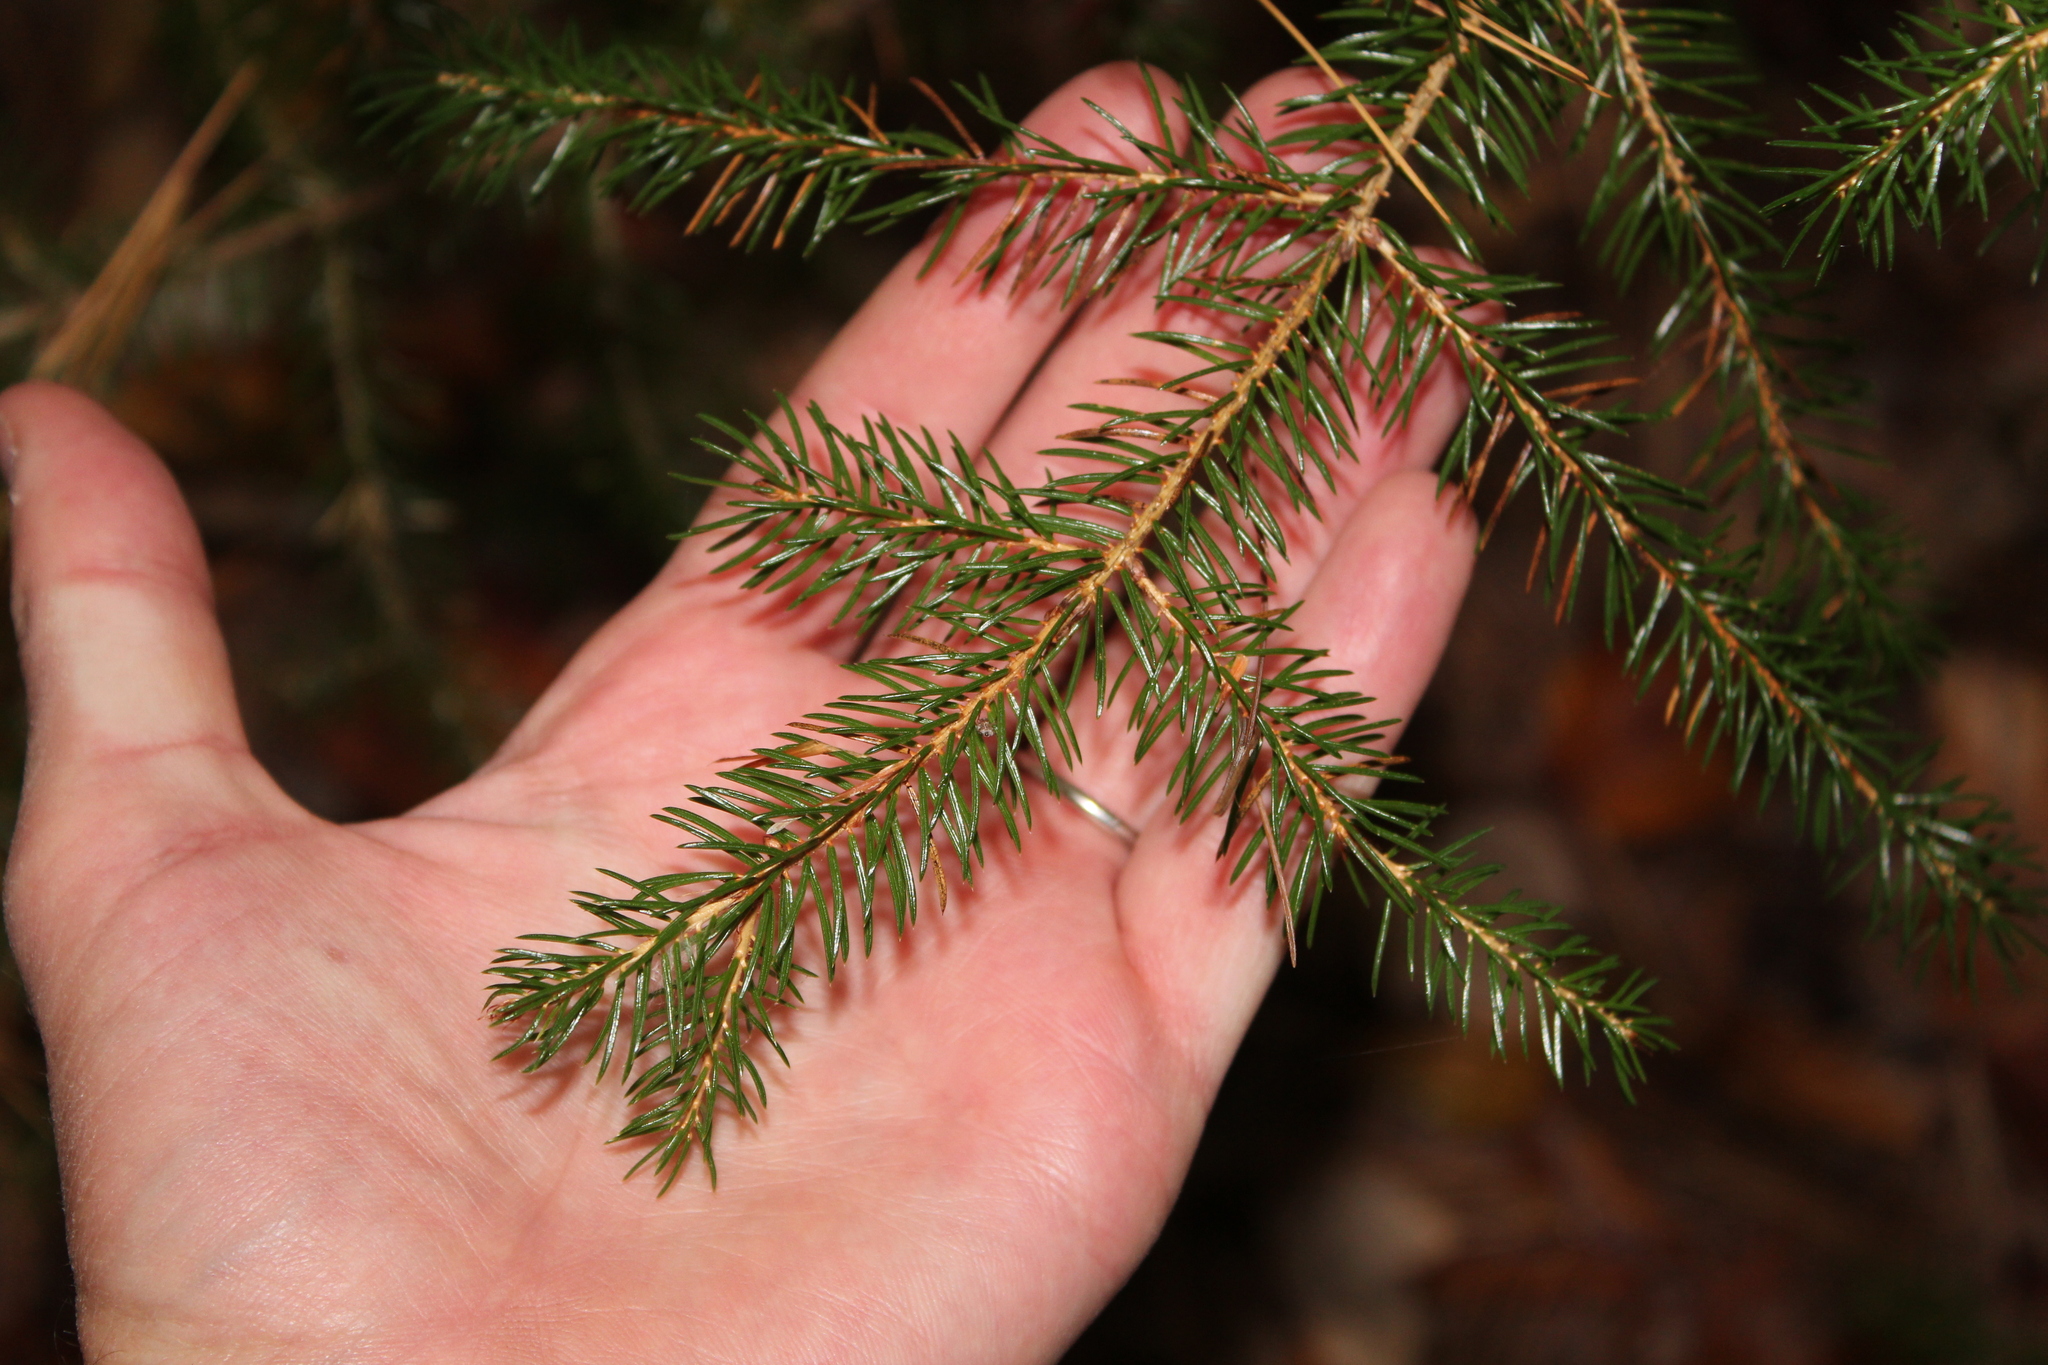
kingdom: Plantae
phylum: Tracheophyta
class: Pinopsida
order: Pinales
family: Pinaceae
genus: Picea
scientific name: Picea abies
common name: Norway spruce
